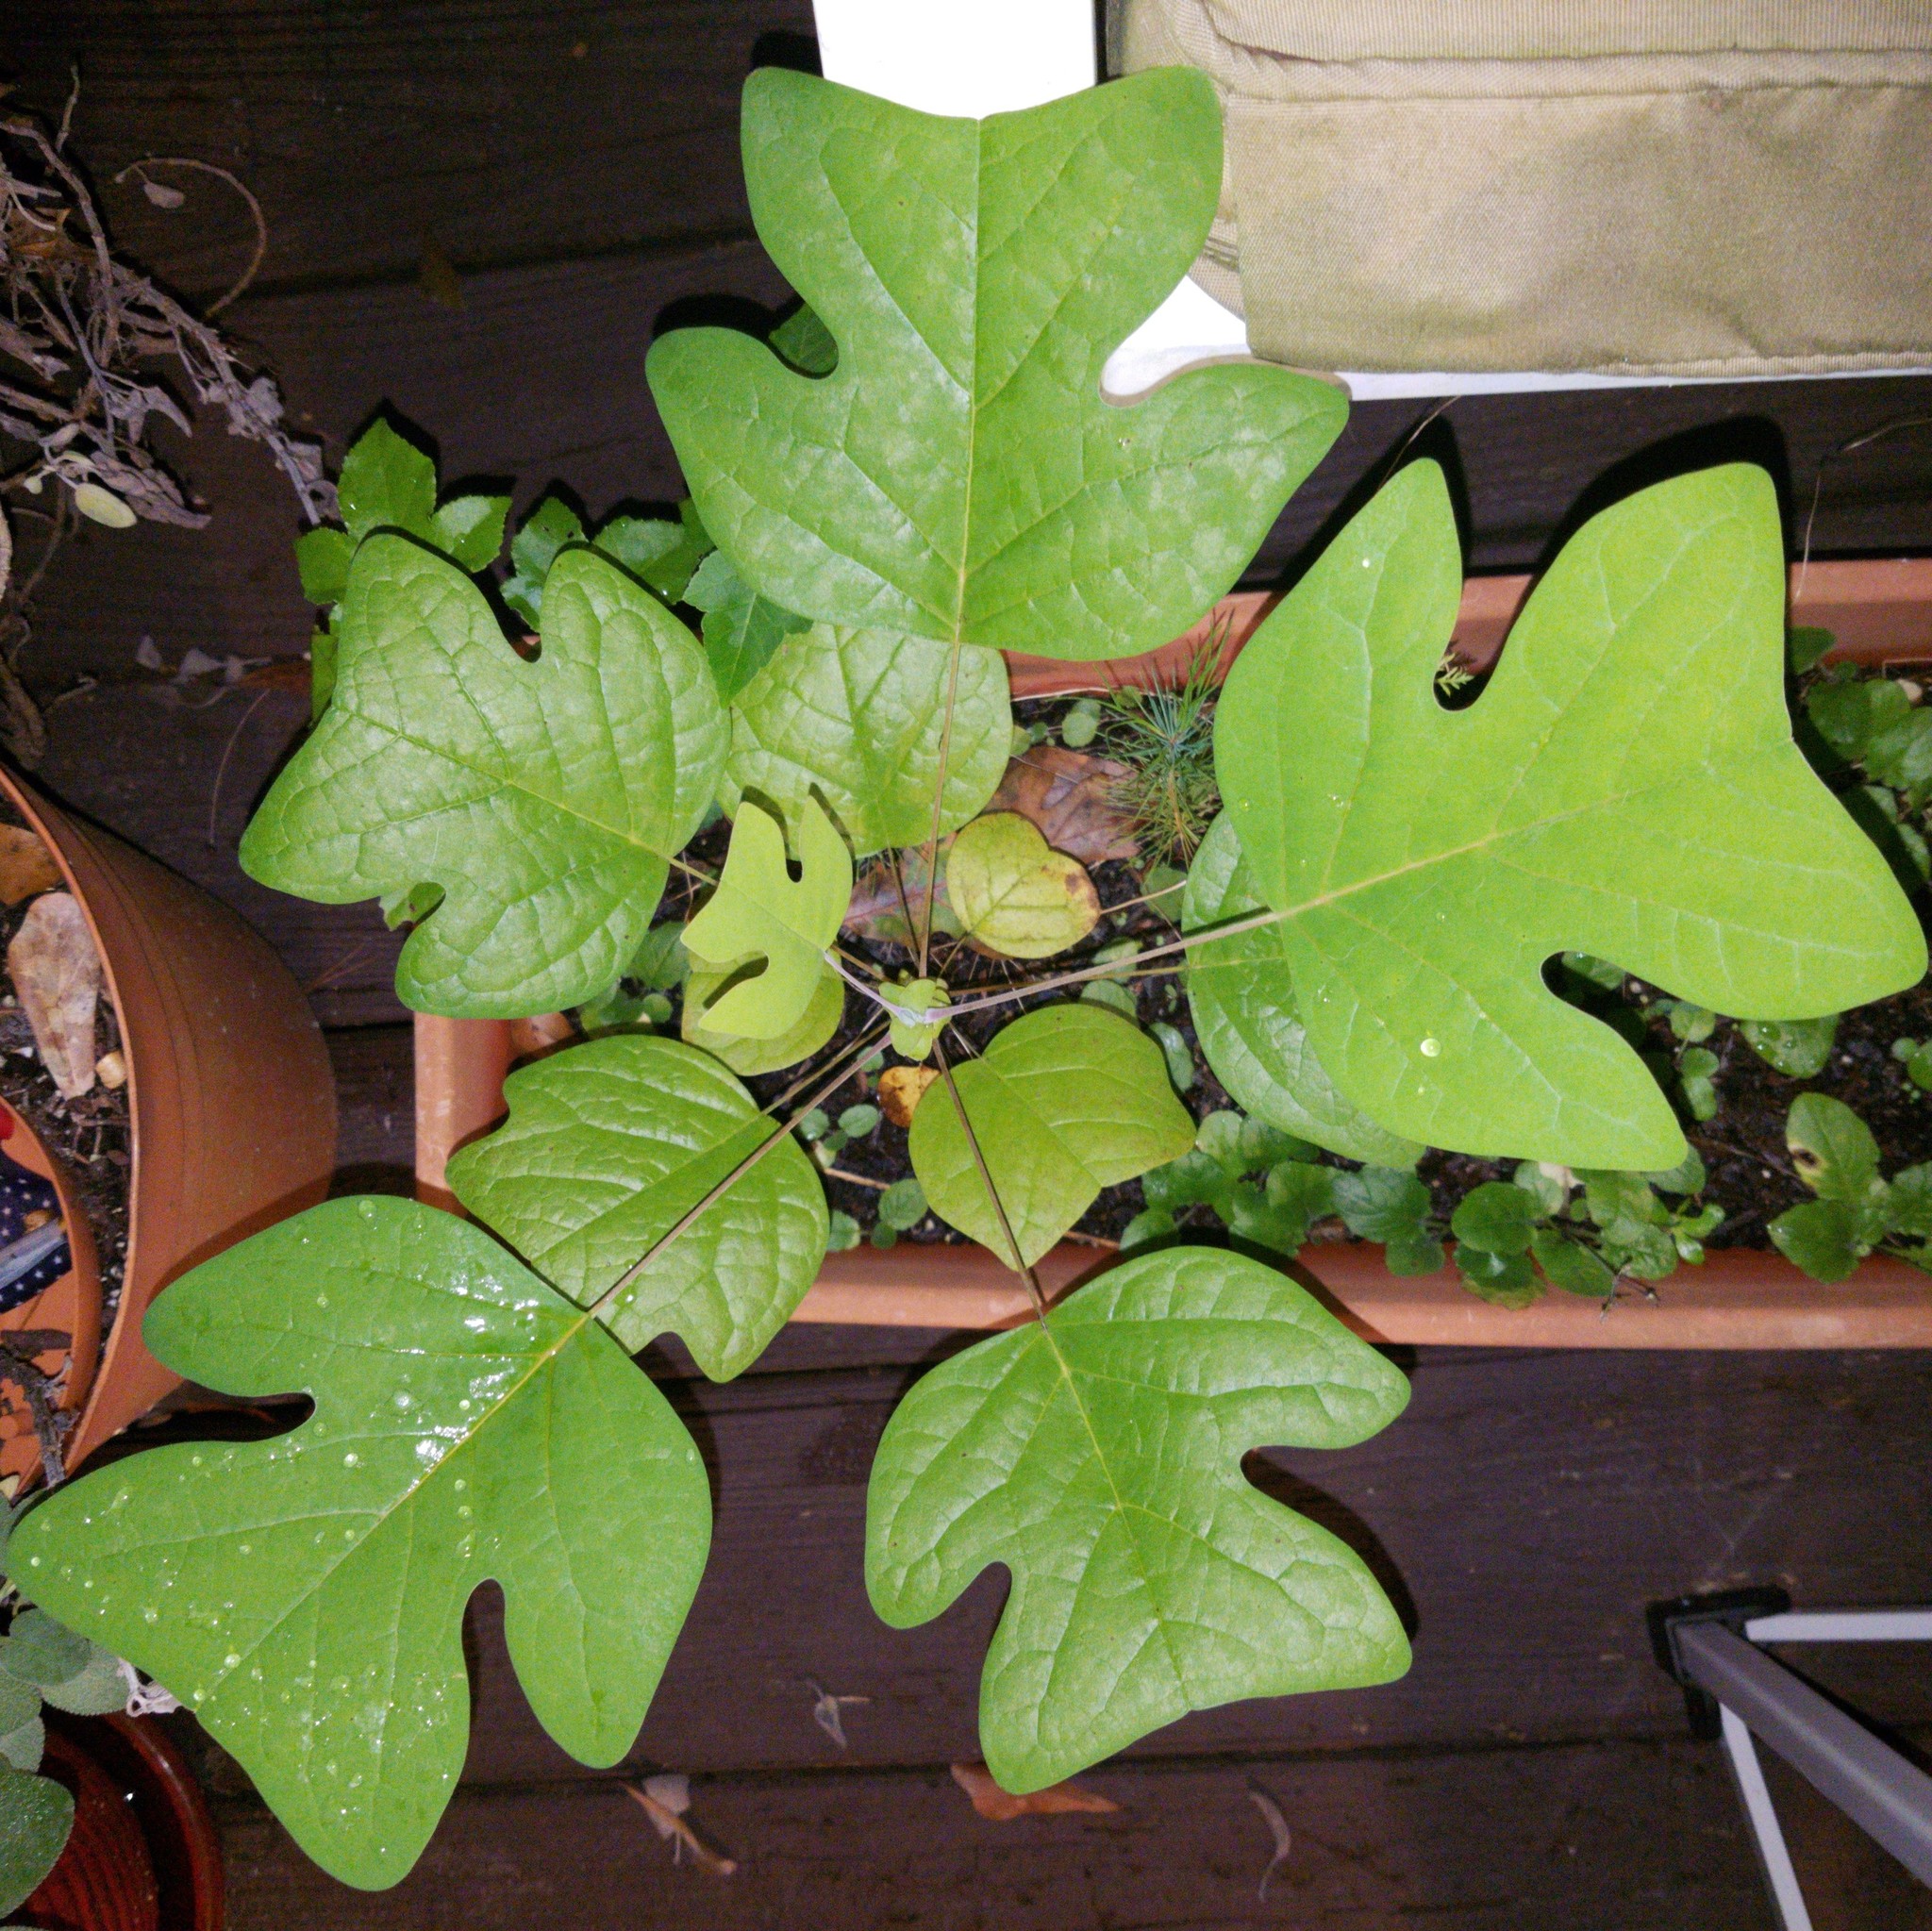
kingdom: Plantae
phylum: Tracheophyta
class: Magnoliopsida
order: Magnoliales
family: Magnoliaceae
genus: Liriodendron
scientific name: Liriodendron tulipifera
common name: Tulip tree
